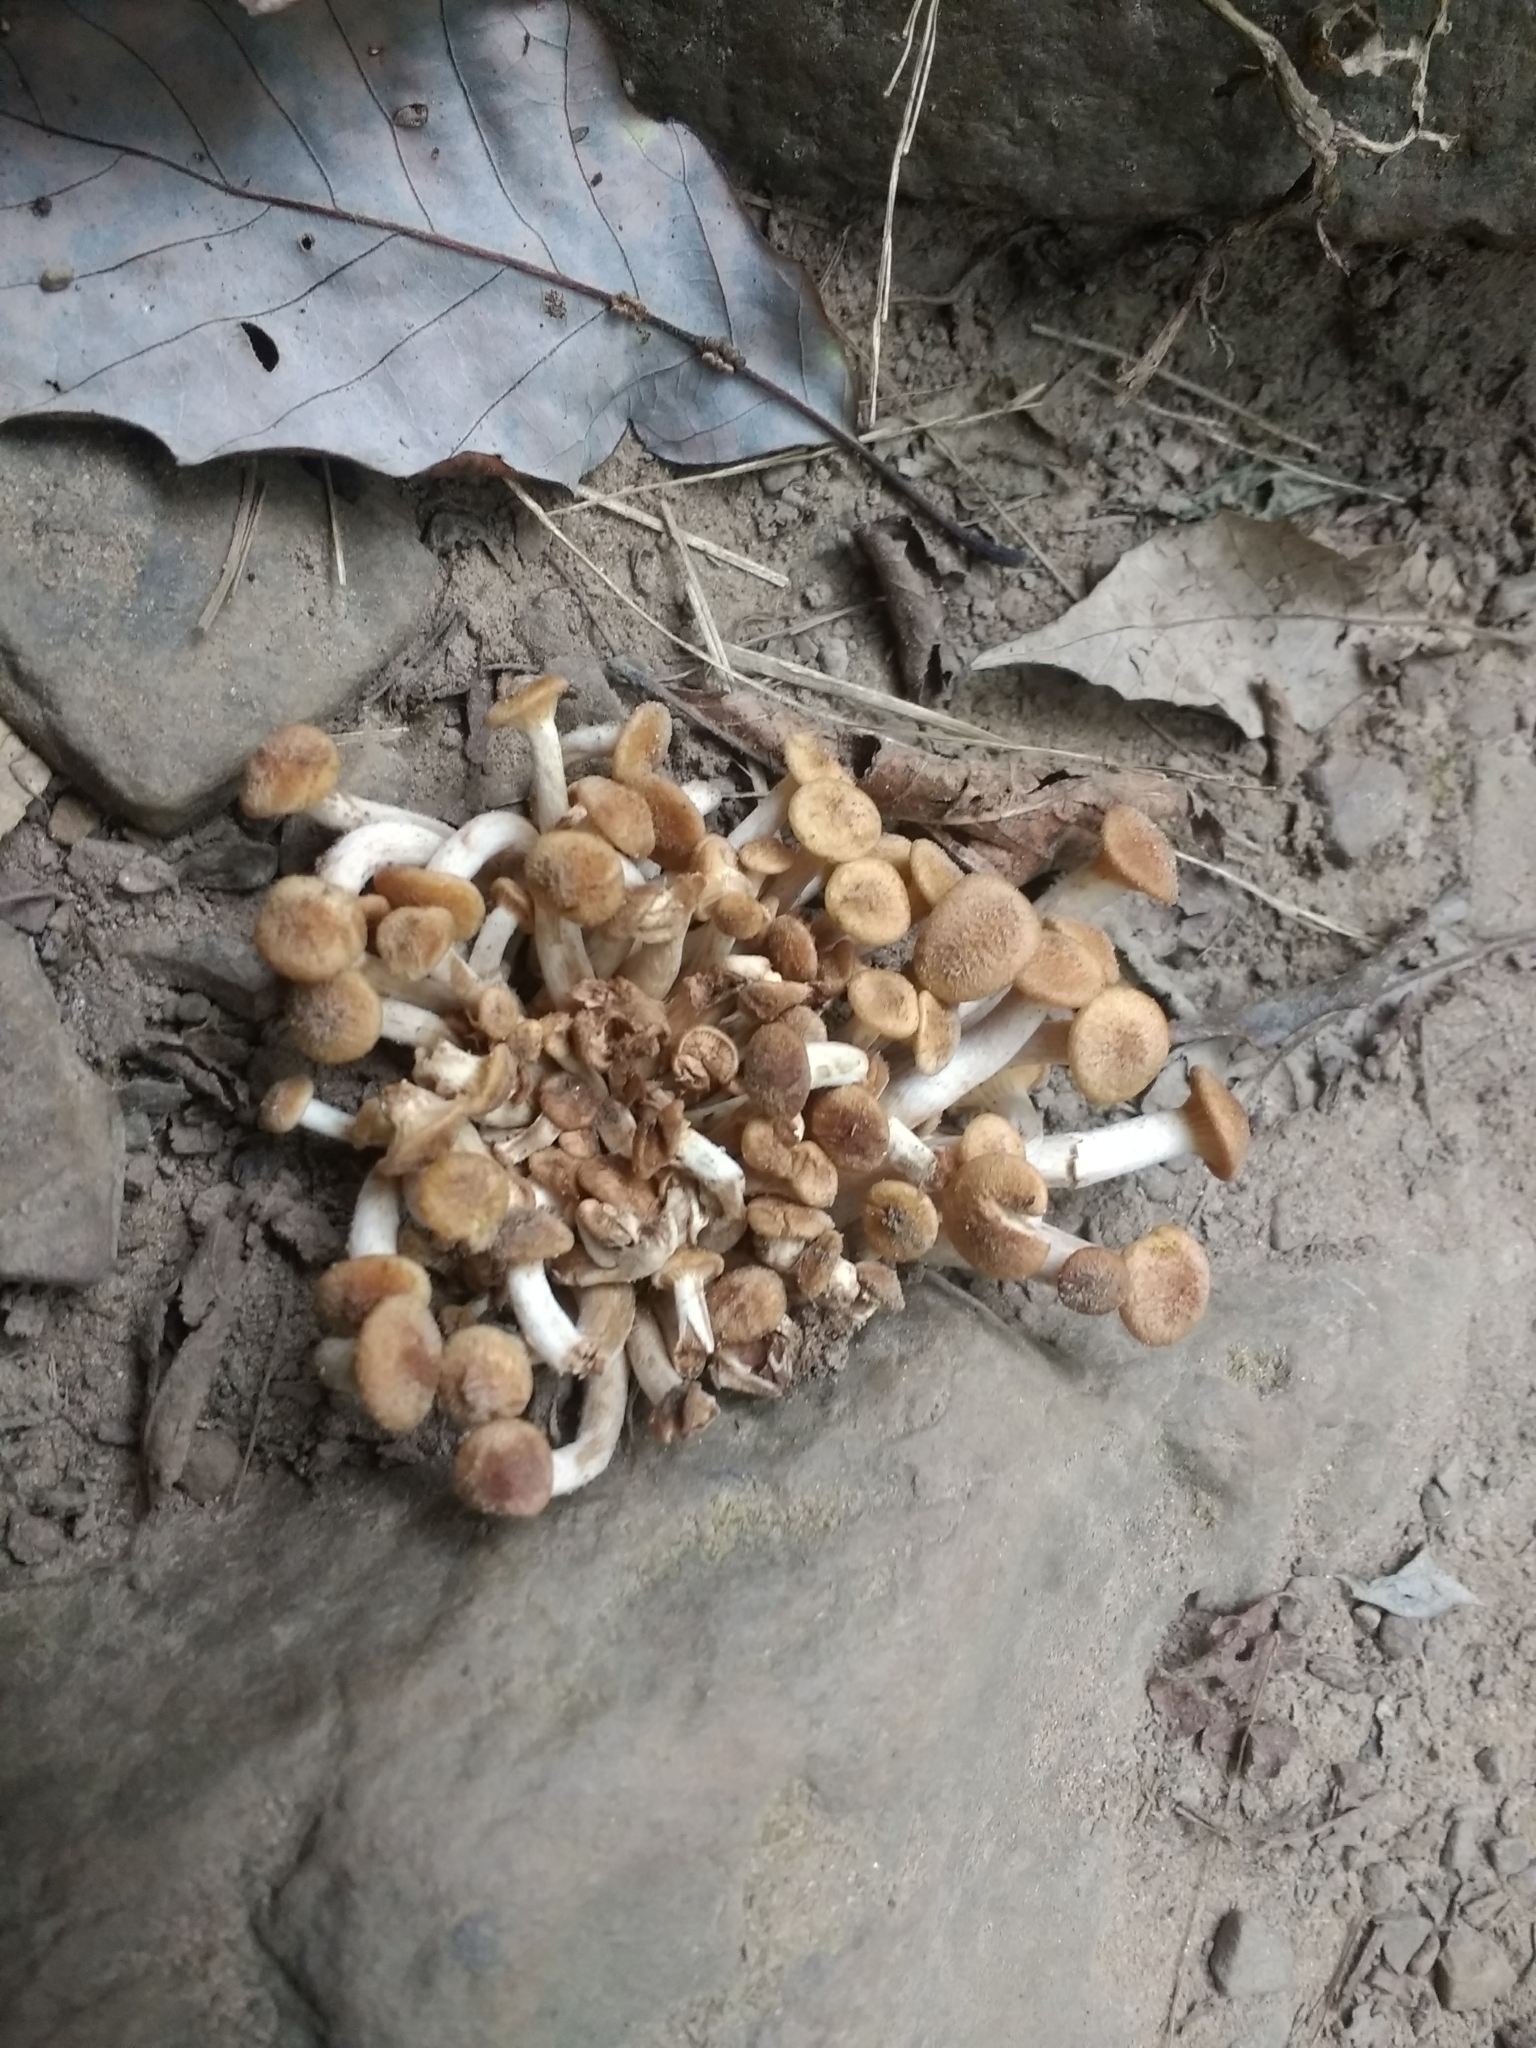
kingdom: Fungi
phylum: Basidiomycota
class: Agaricomycetes
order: Agaricales
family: Physalacriaceae
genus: Desarmillaria
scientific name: Desarmillaria caespitosa
